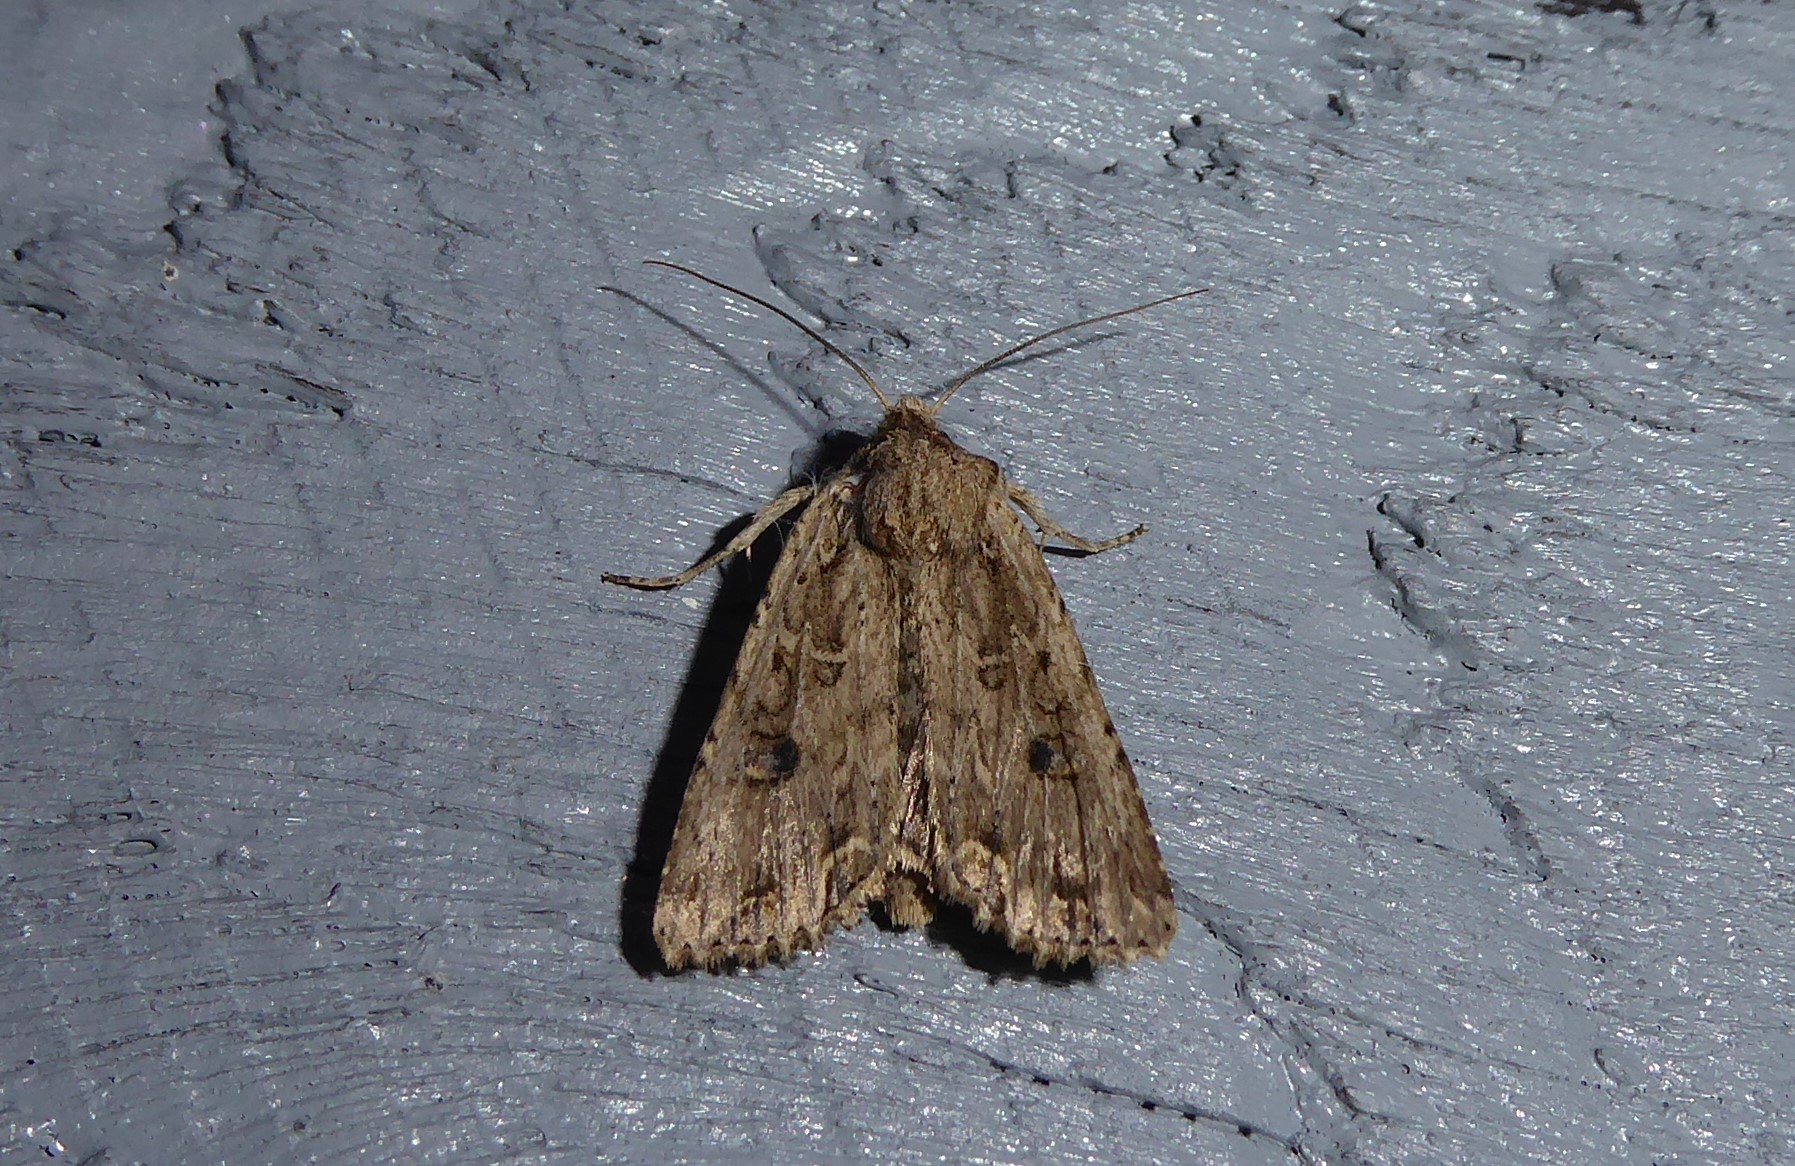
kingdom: Animalia
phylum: Arthropoda
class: Insecta
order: Lepidoptera
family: Noctuidae
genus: Ichneutica
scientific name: Ichneutica lignana
